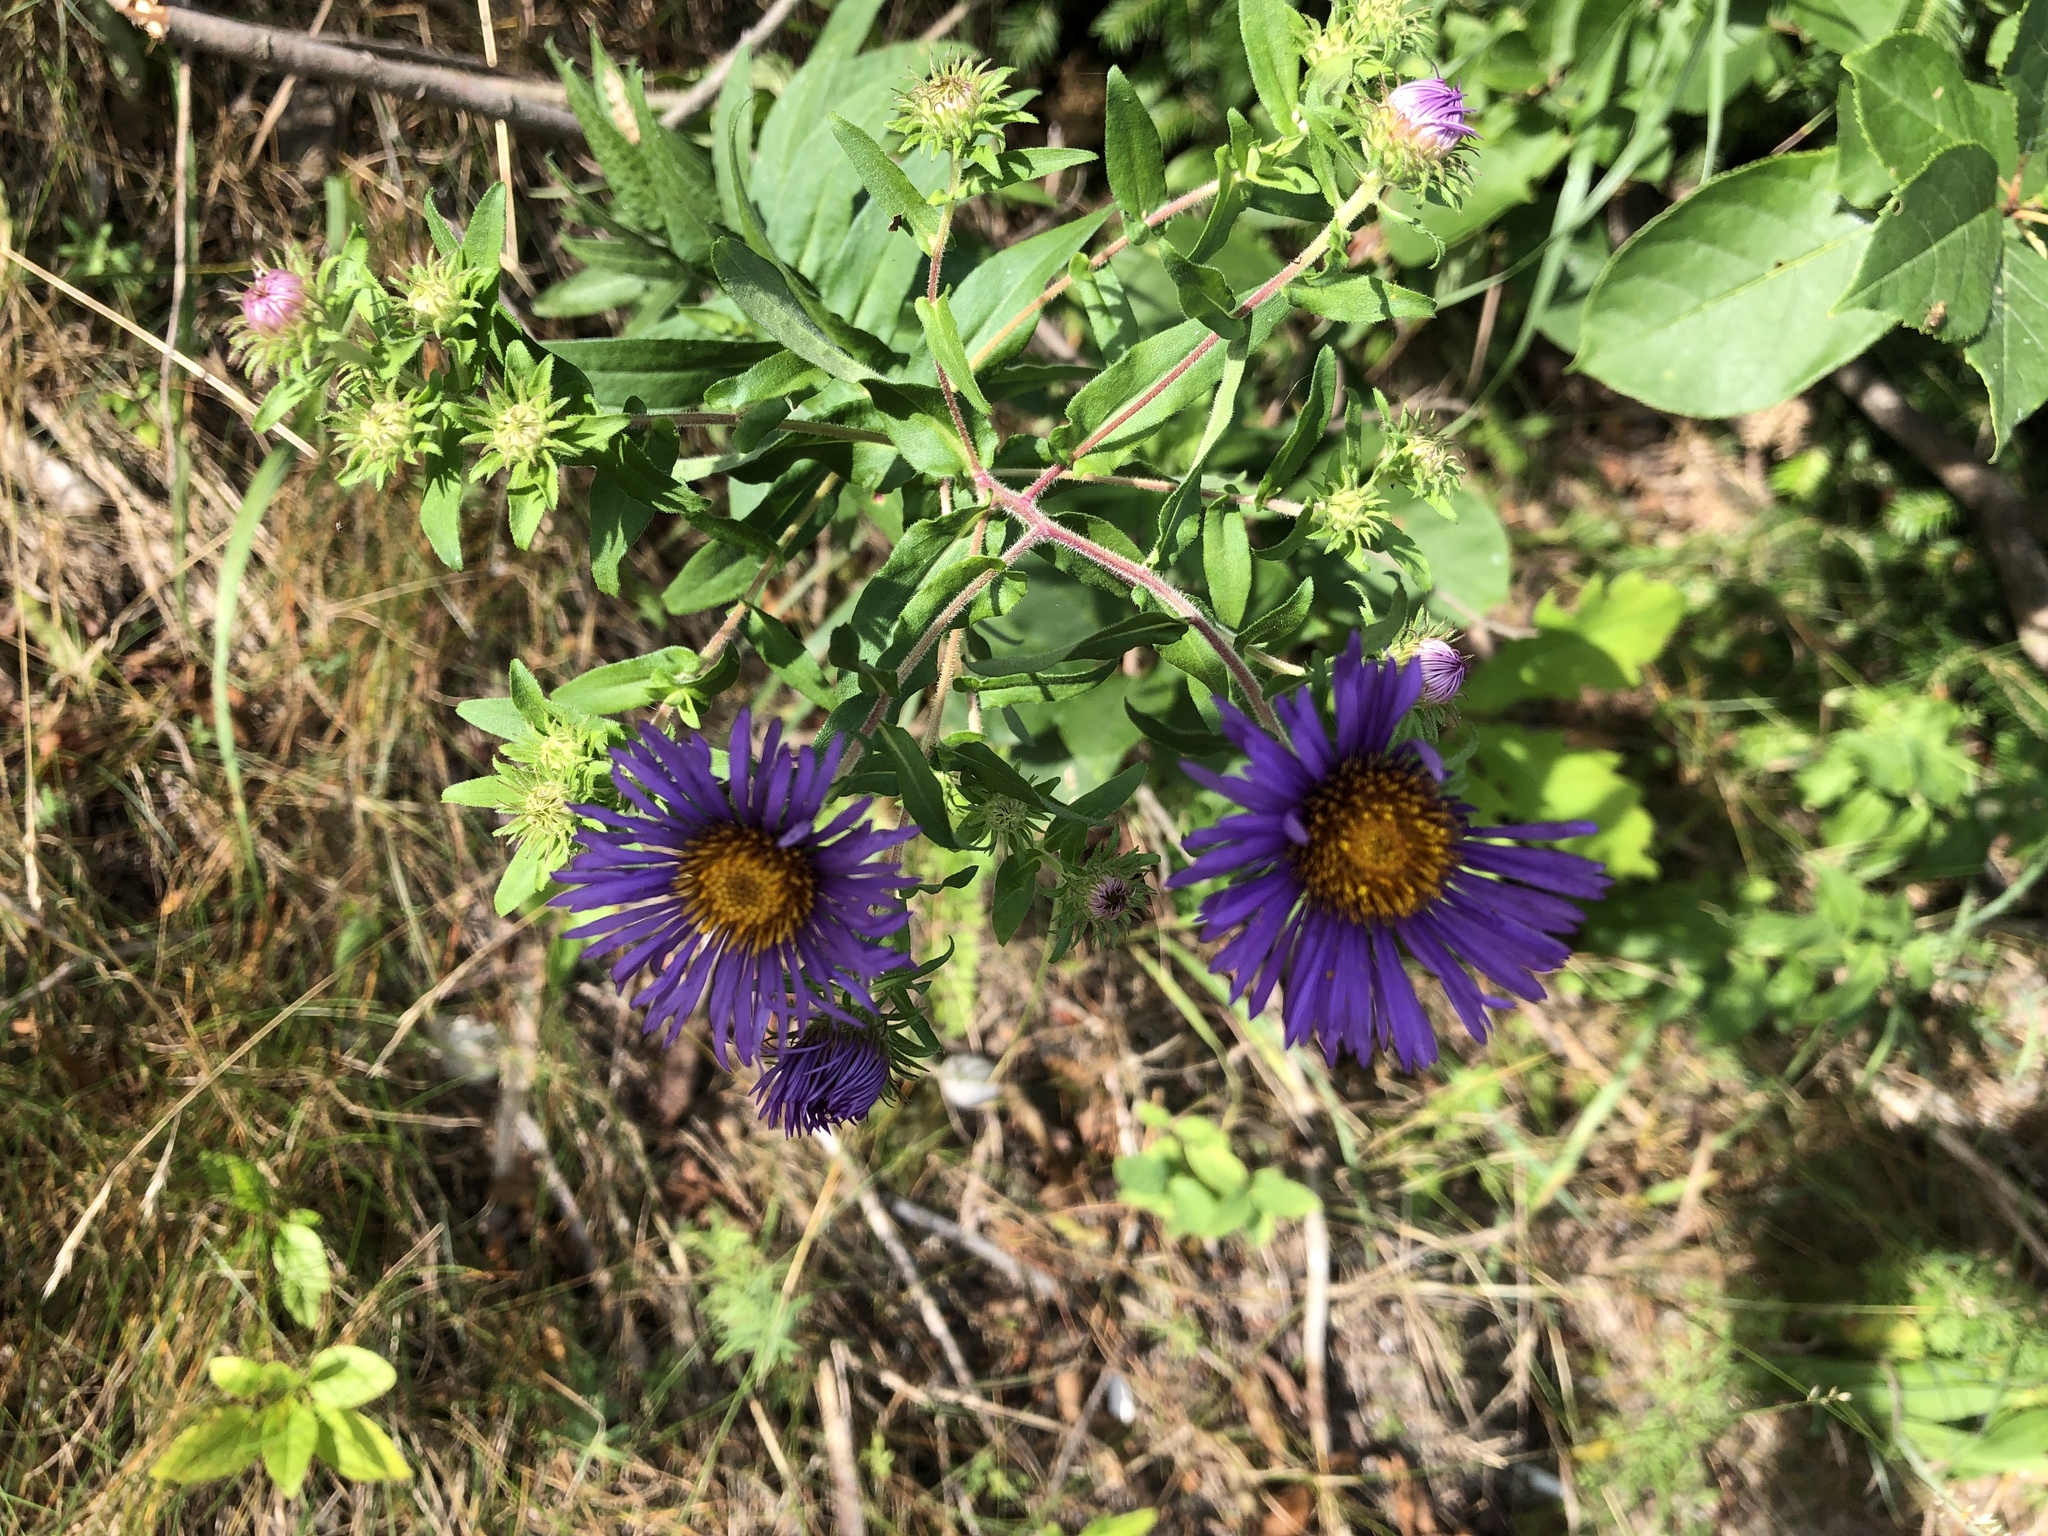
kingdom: Plantae
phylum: Tracheophyta
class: Magnoliopsida
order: Asterales
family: Asteraceae
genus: Symphyotrichum
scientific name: Symphyotrichum novae-angliae
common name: Michaelmas daisy
